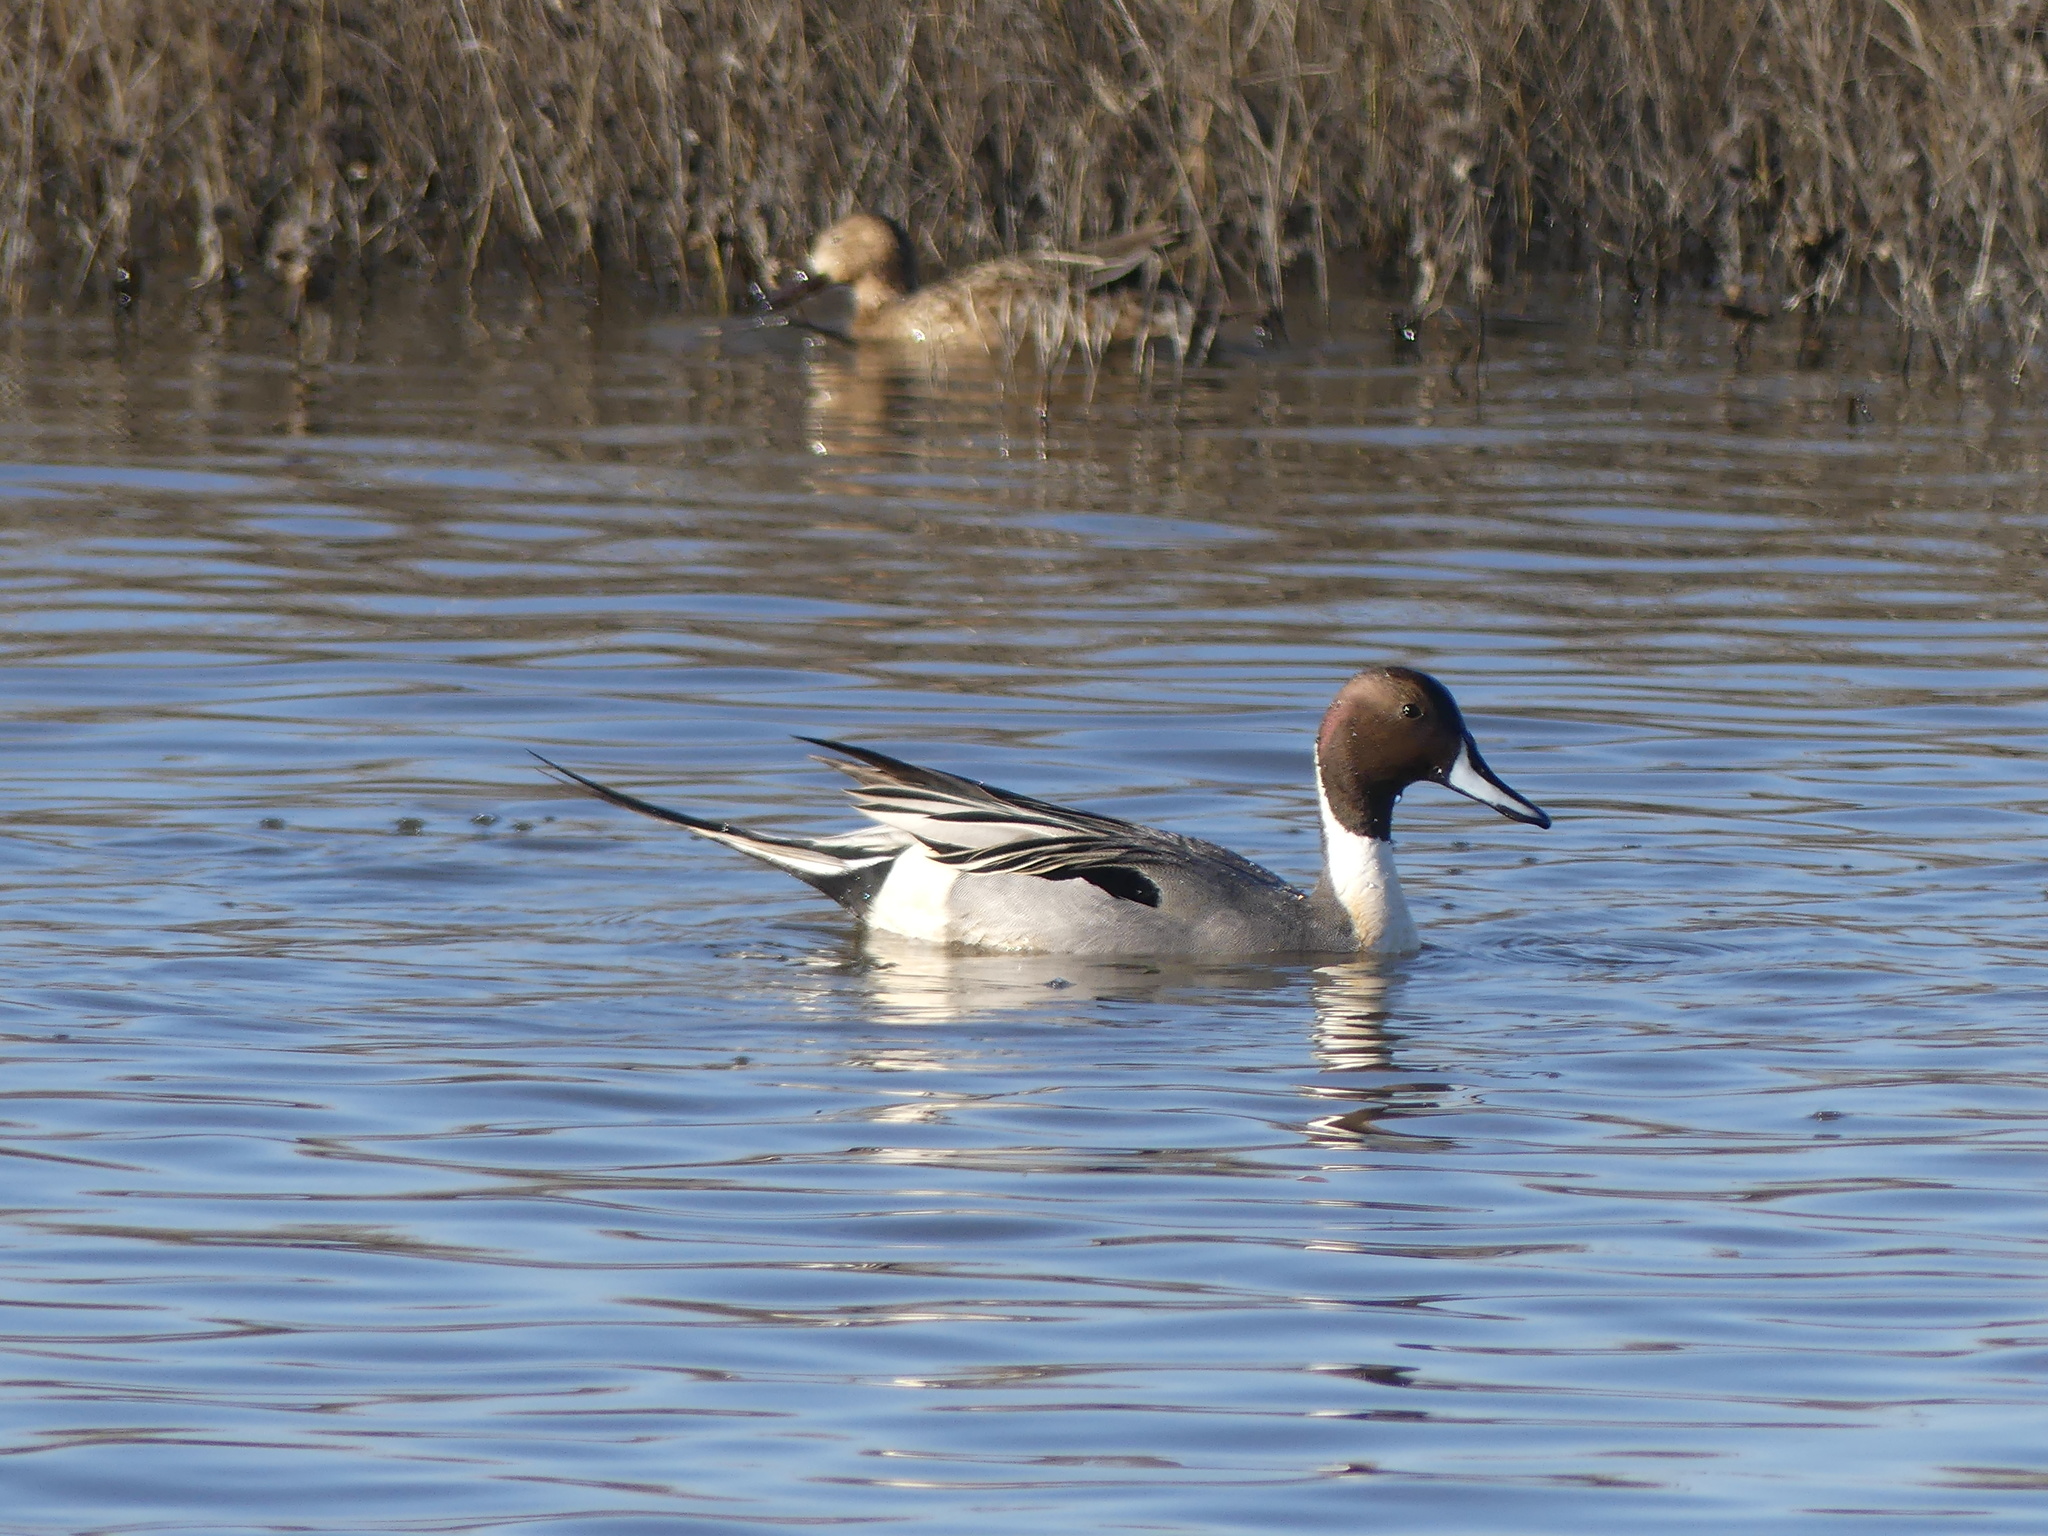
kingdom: Animalia
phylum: Chordata
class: Aves
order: Anseriformes
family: Anatidae
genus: Anas
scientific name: Anas acuta
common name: Northern pintail
